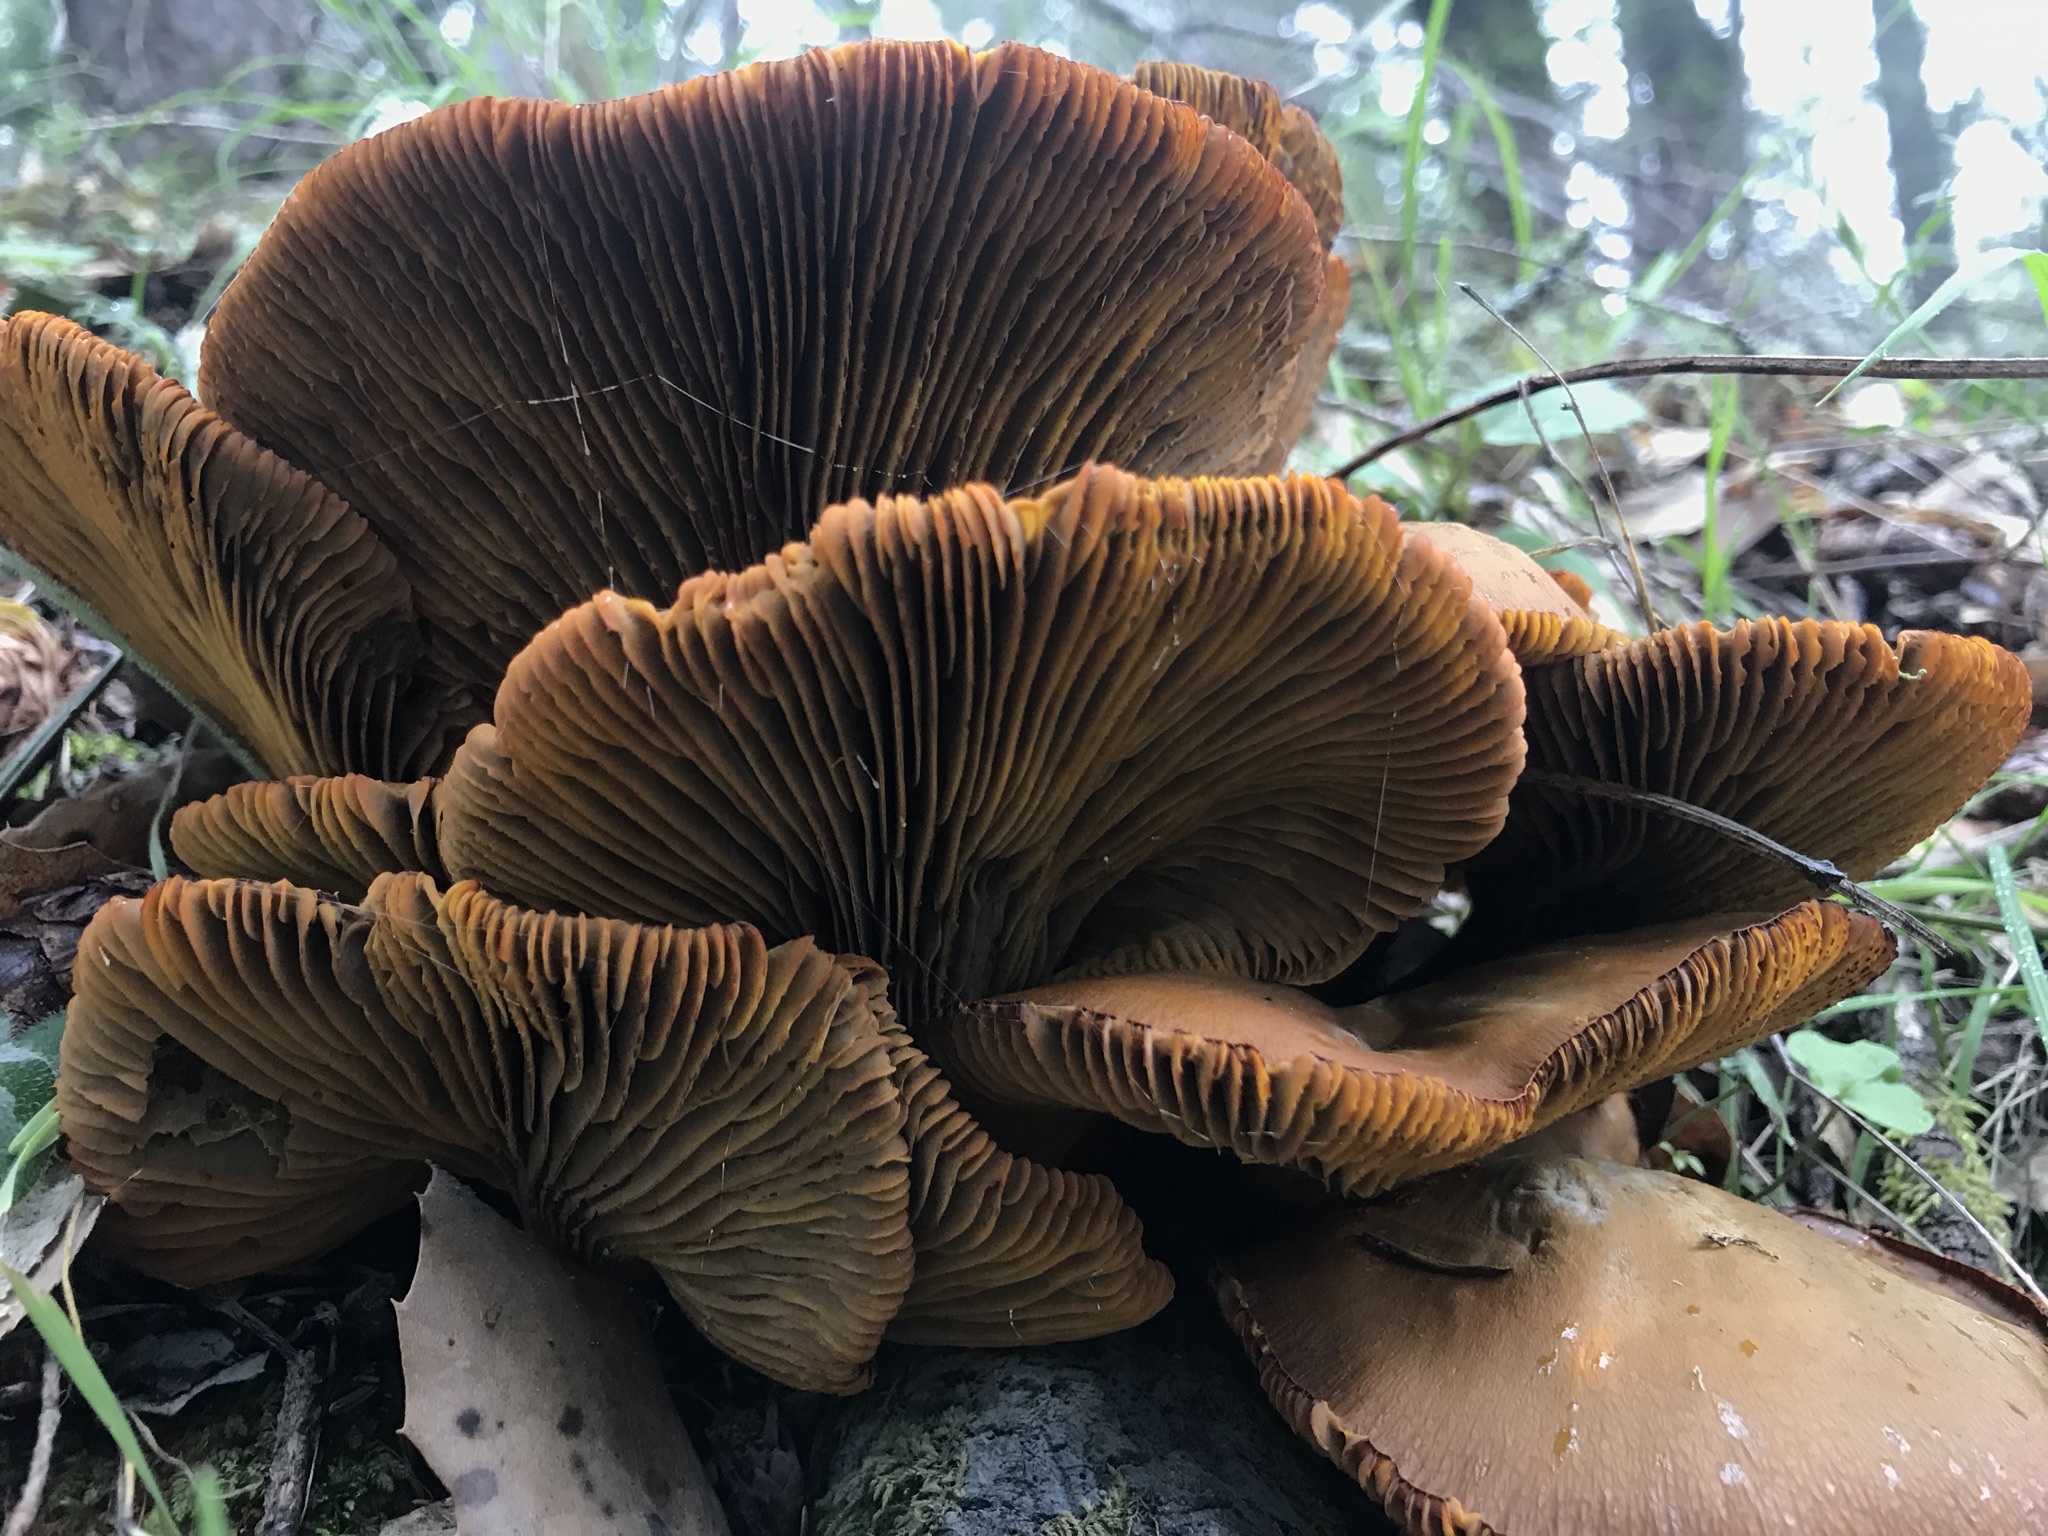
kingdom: Fungi
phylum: Basidiomycota
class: Agaricomycetes
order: Agaricales
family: Omphalotaceae
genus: Omphalotus
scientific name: Omphalotus olivascens
